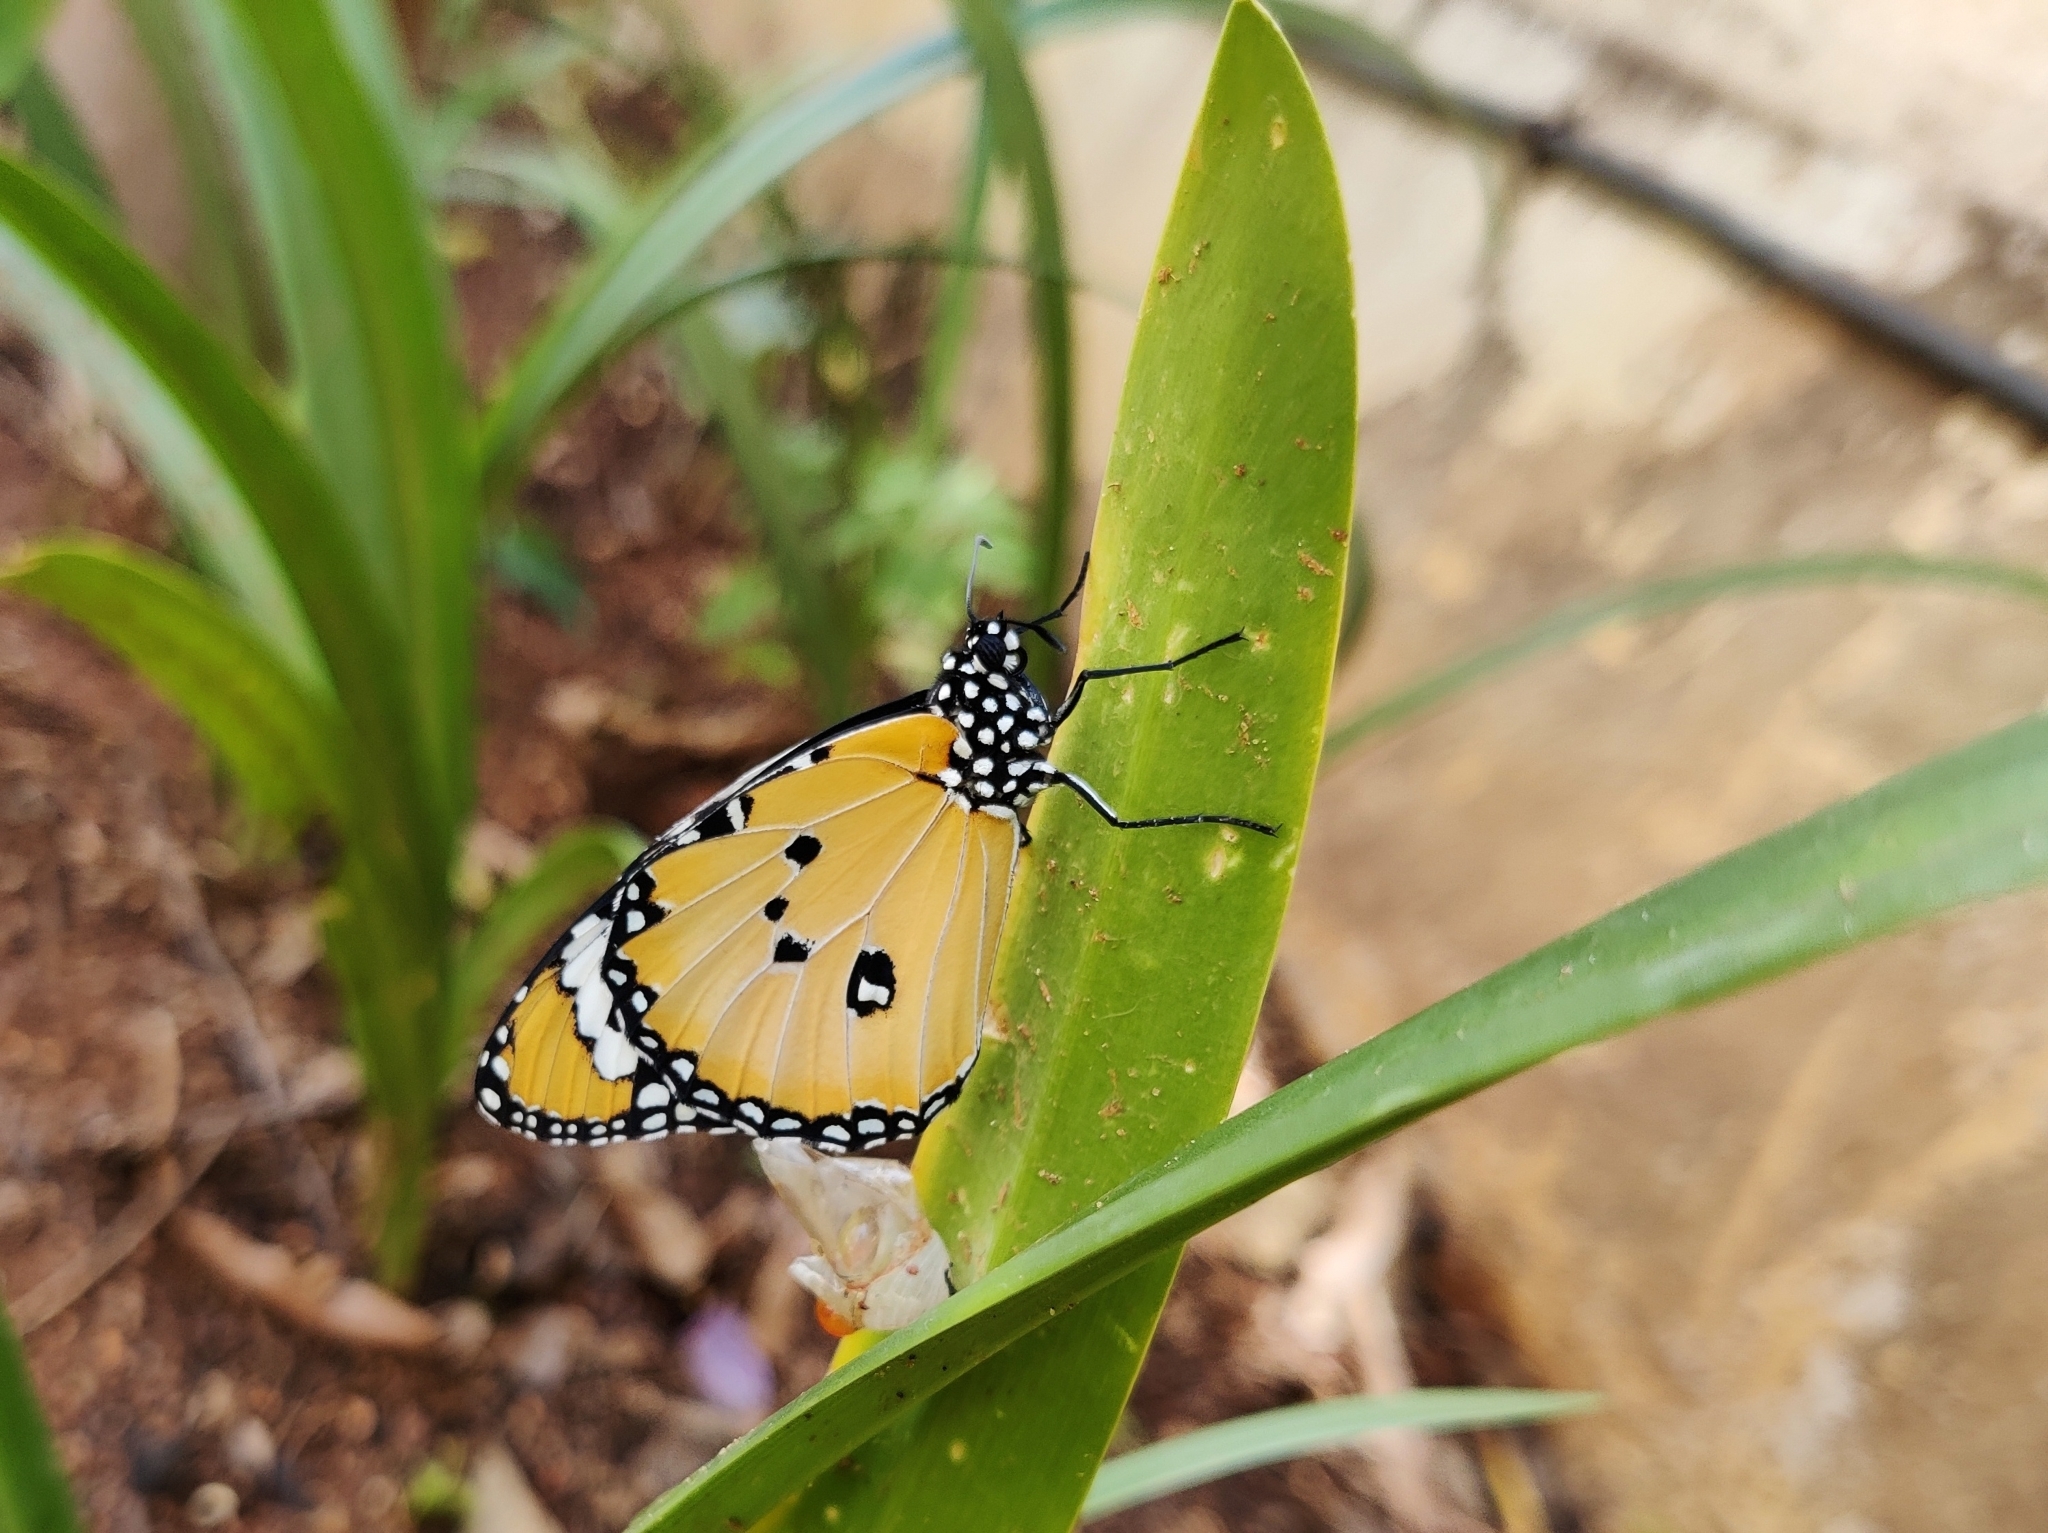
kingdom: Animalia
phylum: Arthropoda
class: Insecta
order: Lepidoptera
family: Nymphalidae
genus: Danaus
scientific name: Danaus chrysippus
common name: Plain tiger
